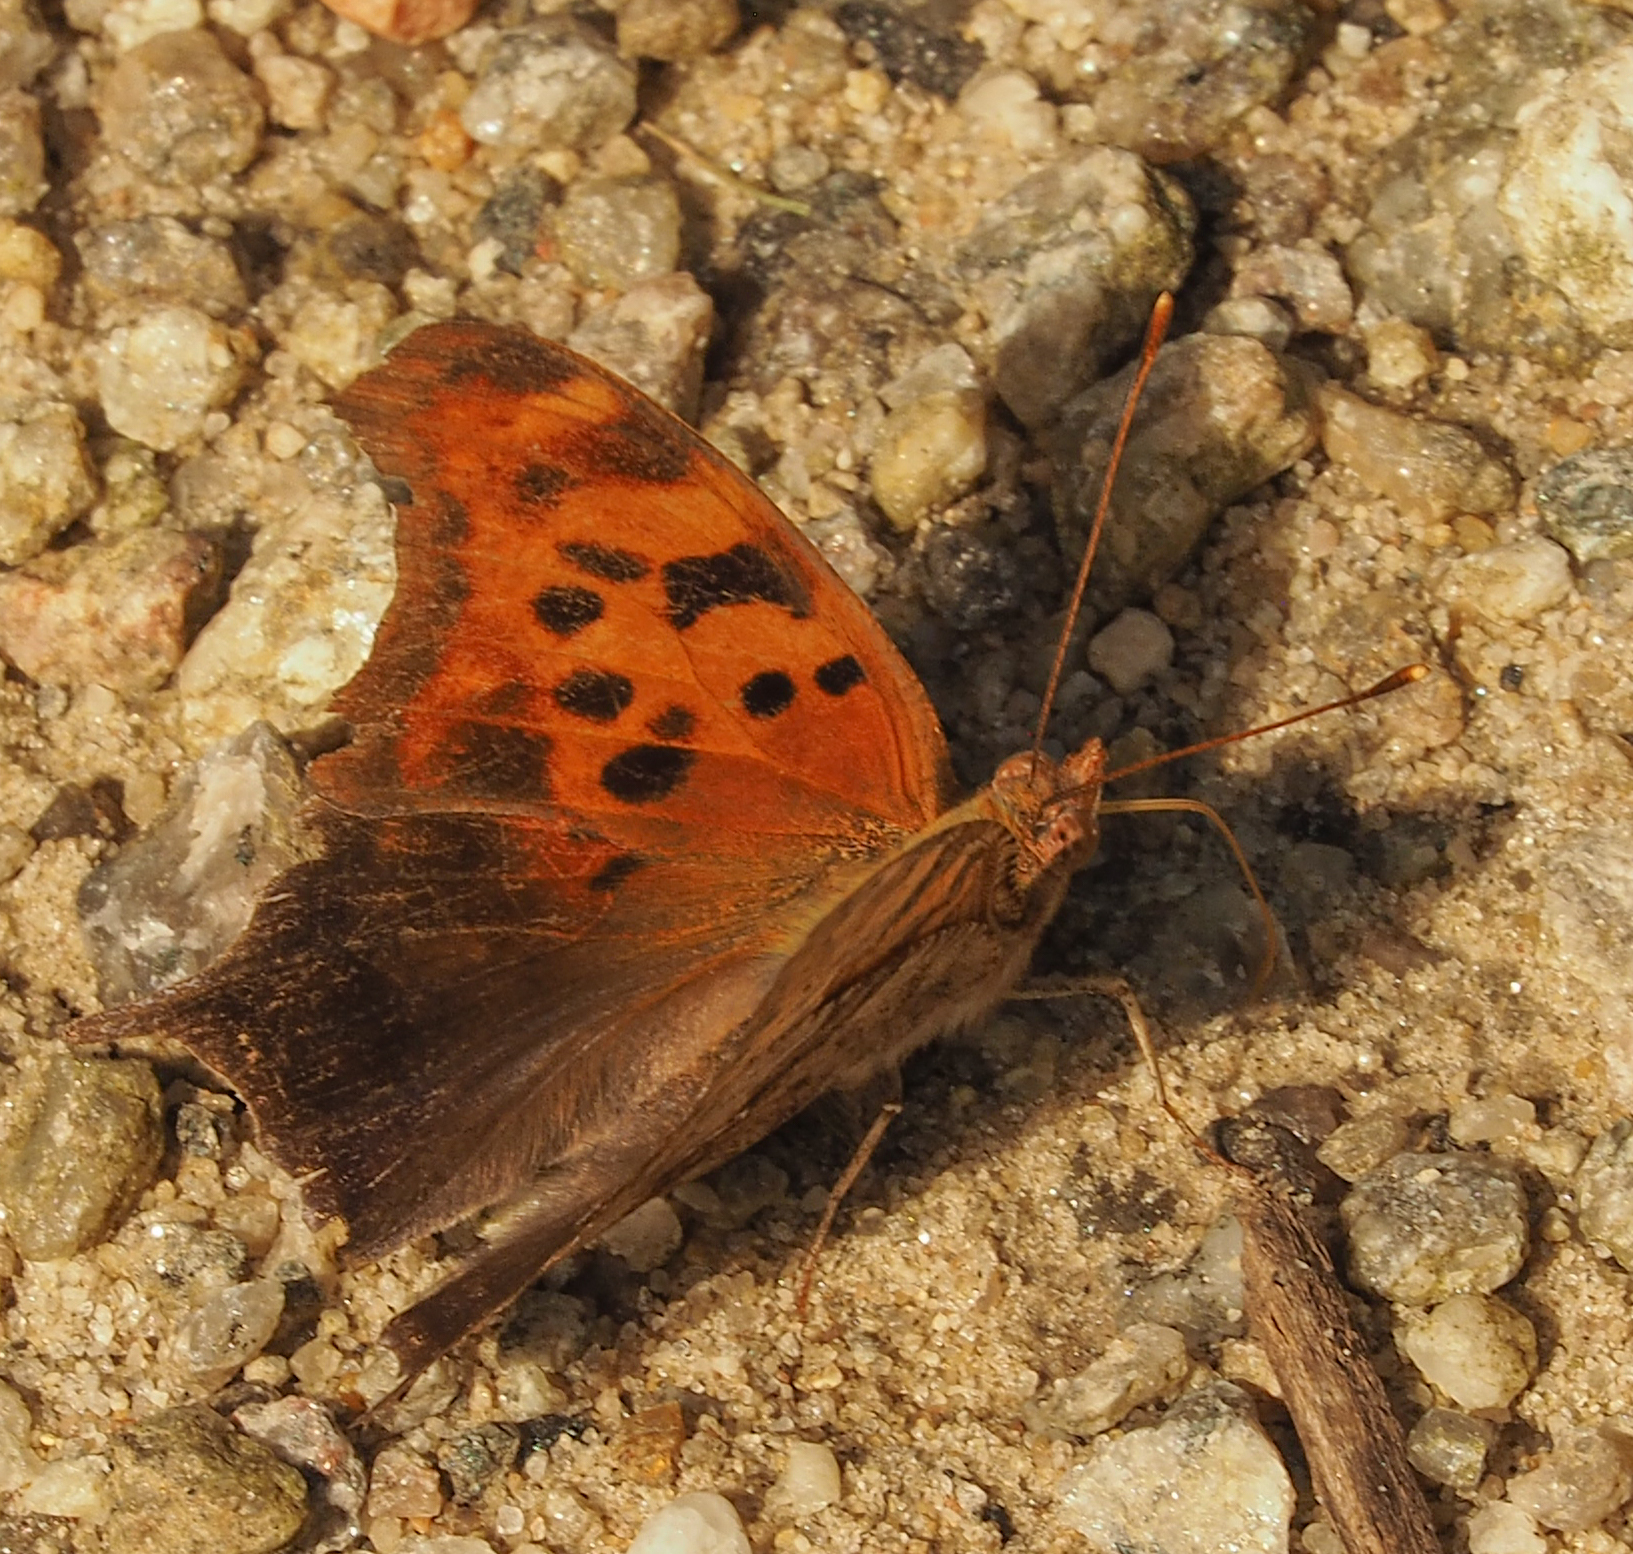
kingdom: Animalia
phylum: Arthropoda
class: Insecta
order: Lepidoptera
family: Nymphalidae
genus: Polygonia
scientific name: Polygonia interrogationis
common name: Question mark
